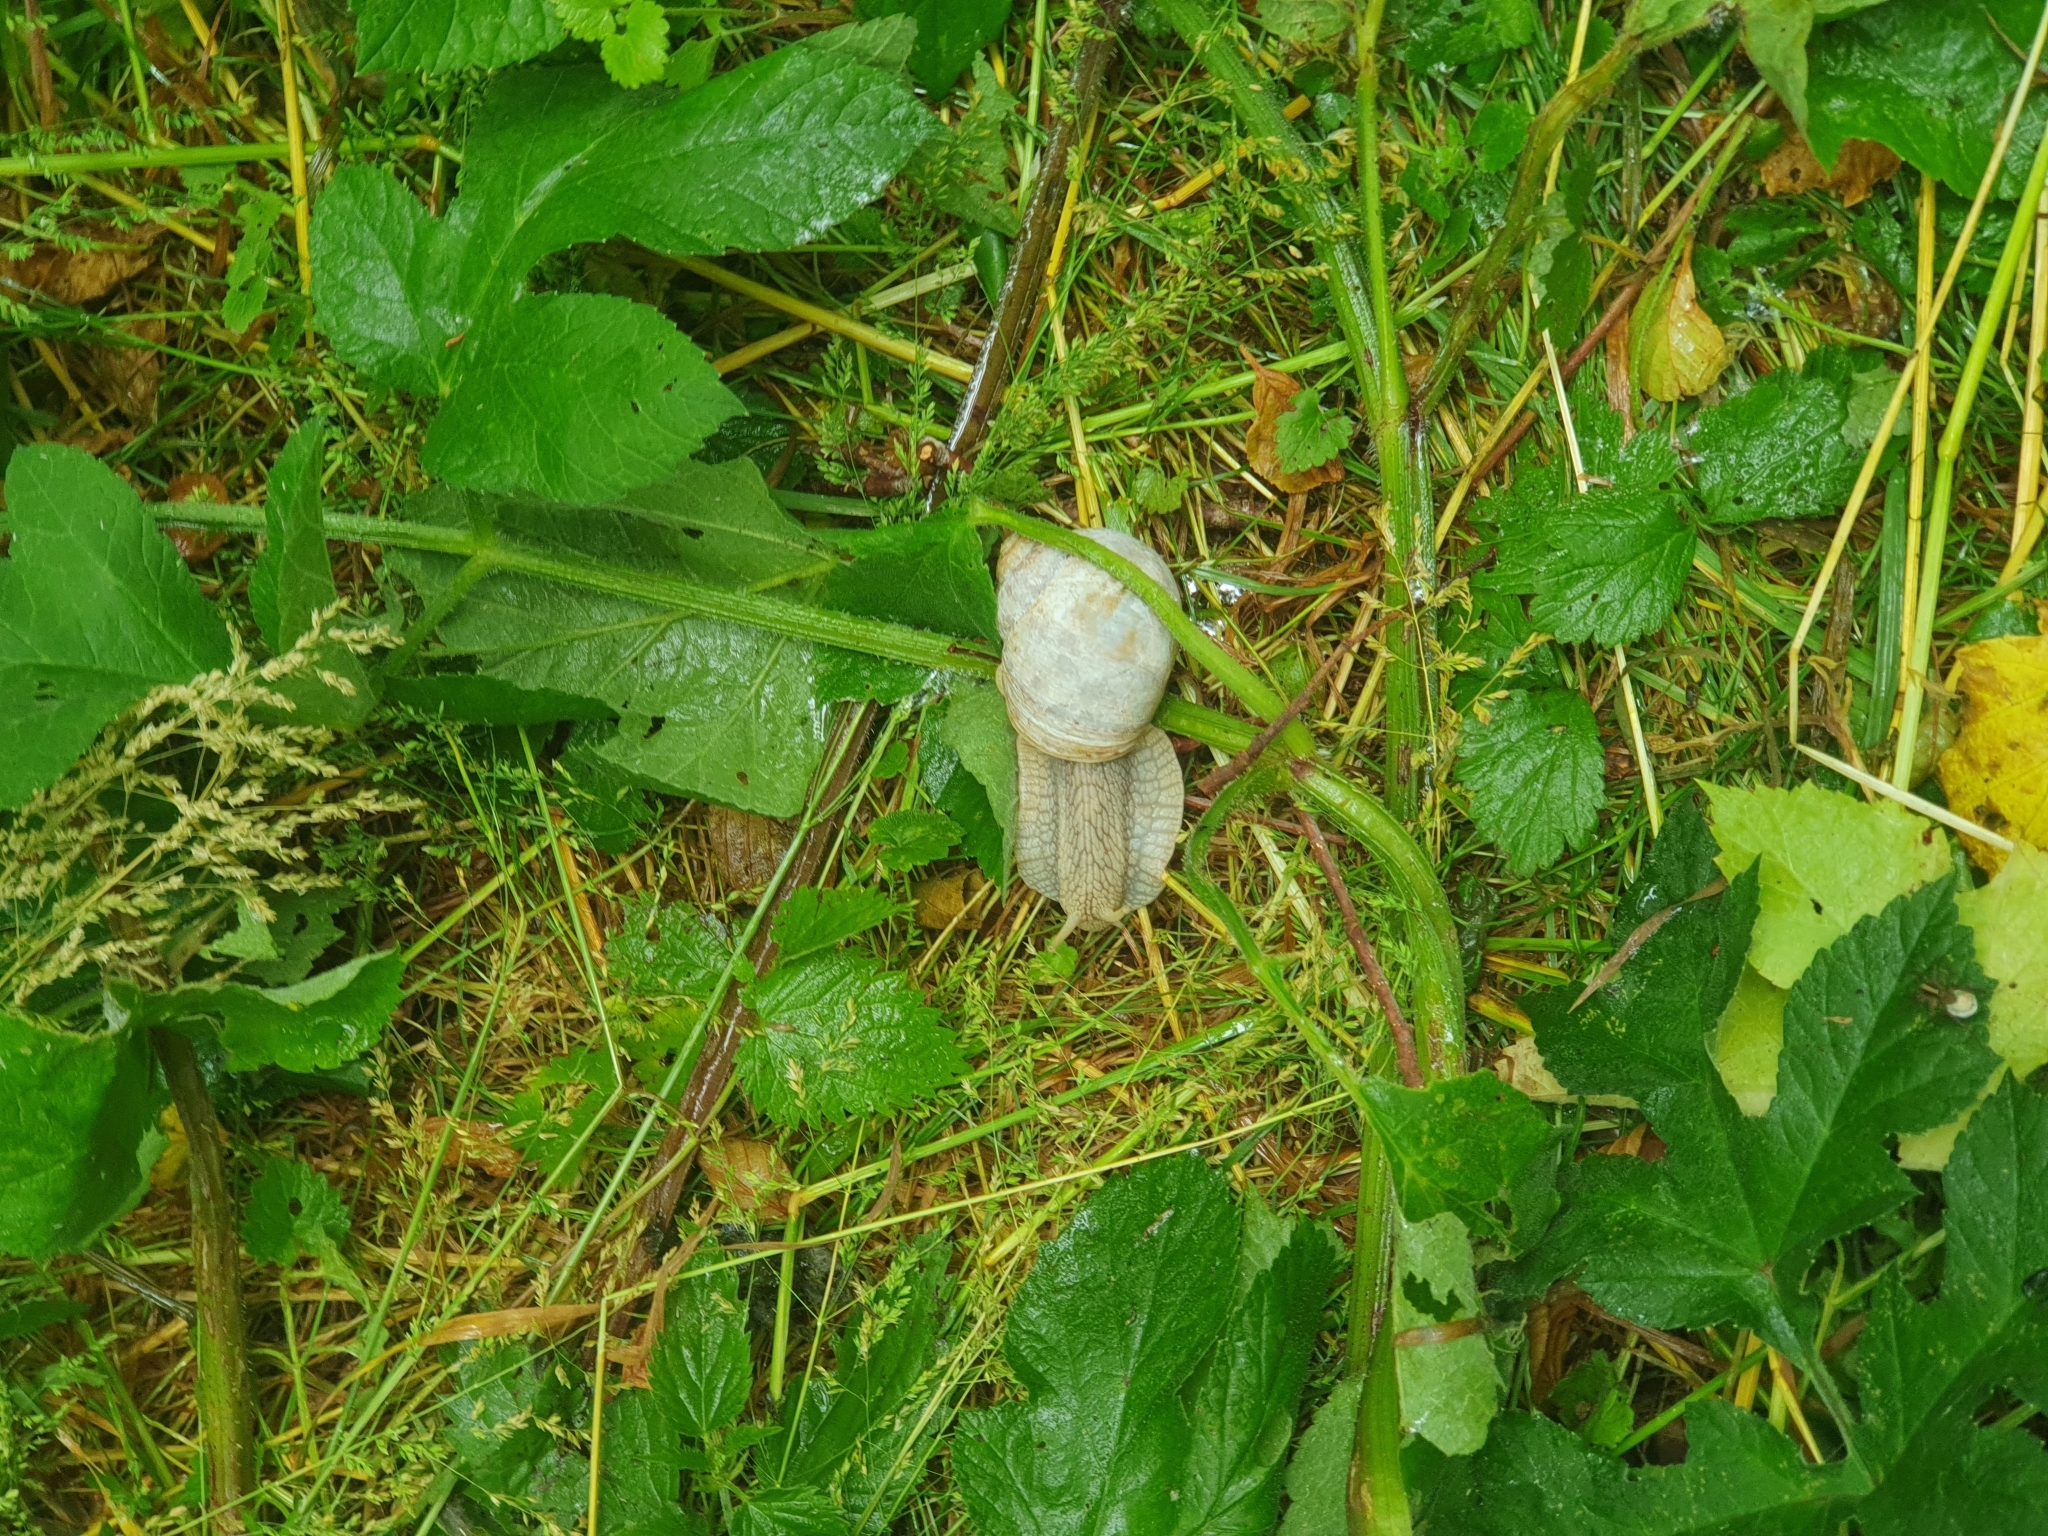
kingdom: Animalia
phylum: Mollusca
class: Gastropoda
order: Stylommatophora
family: Helicidae
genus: Helix
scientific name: Helix pomatia
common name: Roman snail
